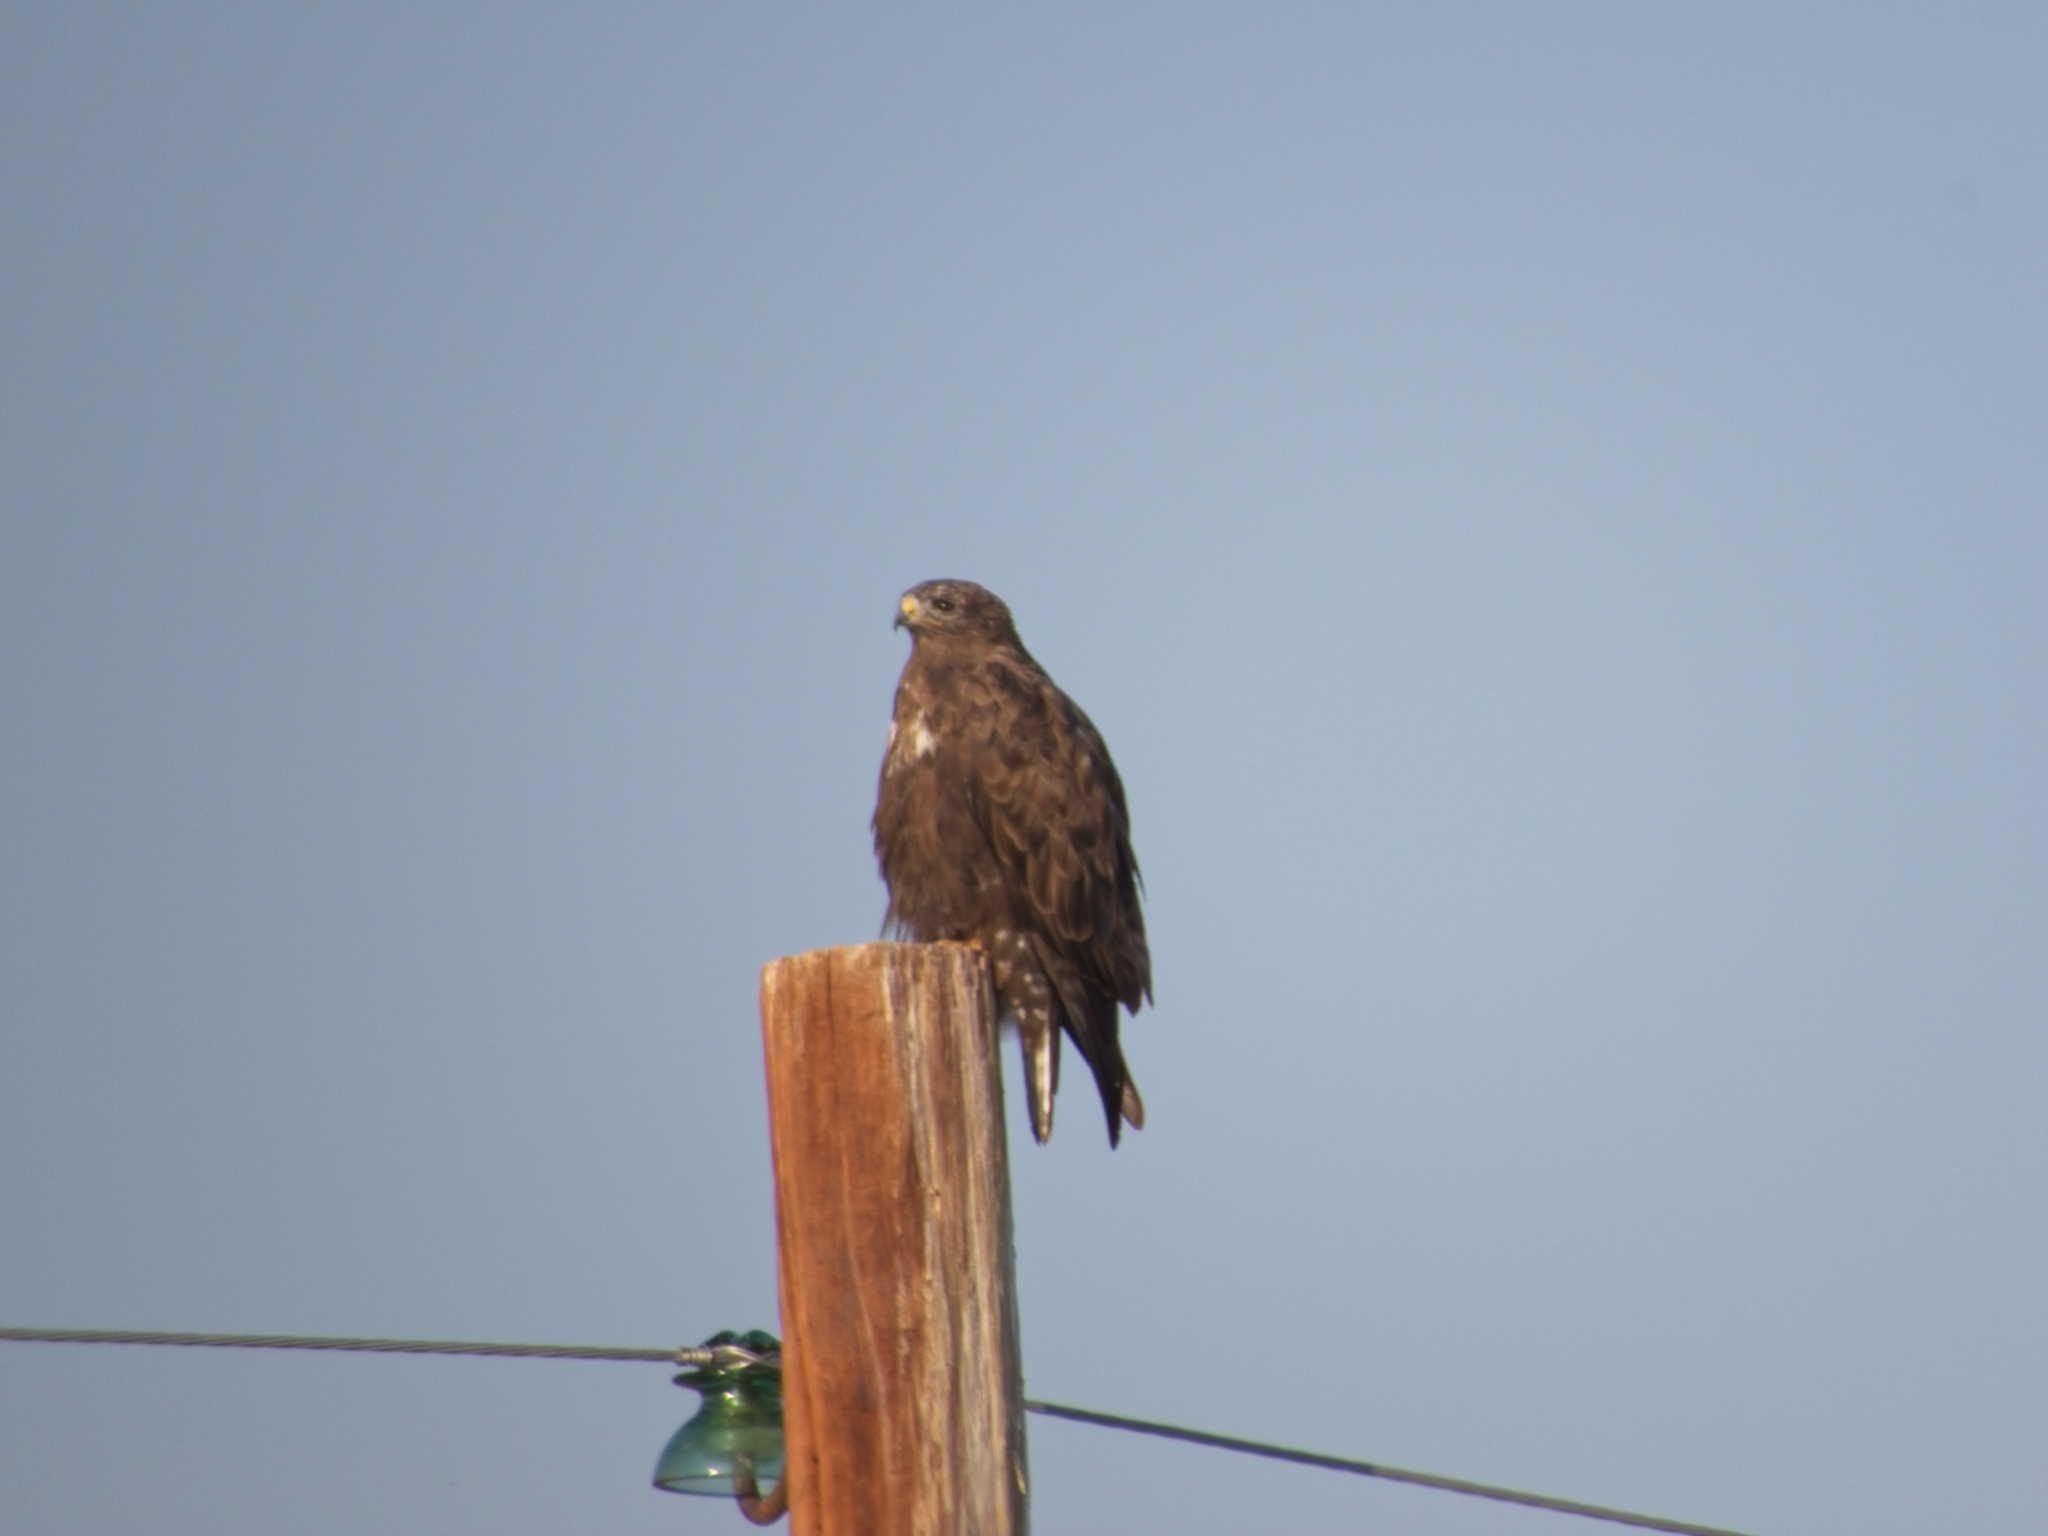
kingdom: Animalia
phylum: Chordata
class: Aves
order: Accipitriformes
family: Accipitridae
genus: Buteo
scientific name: Buteo hemilasius
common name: Upland buzzard
